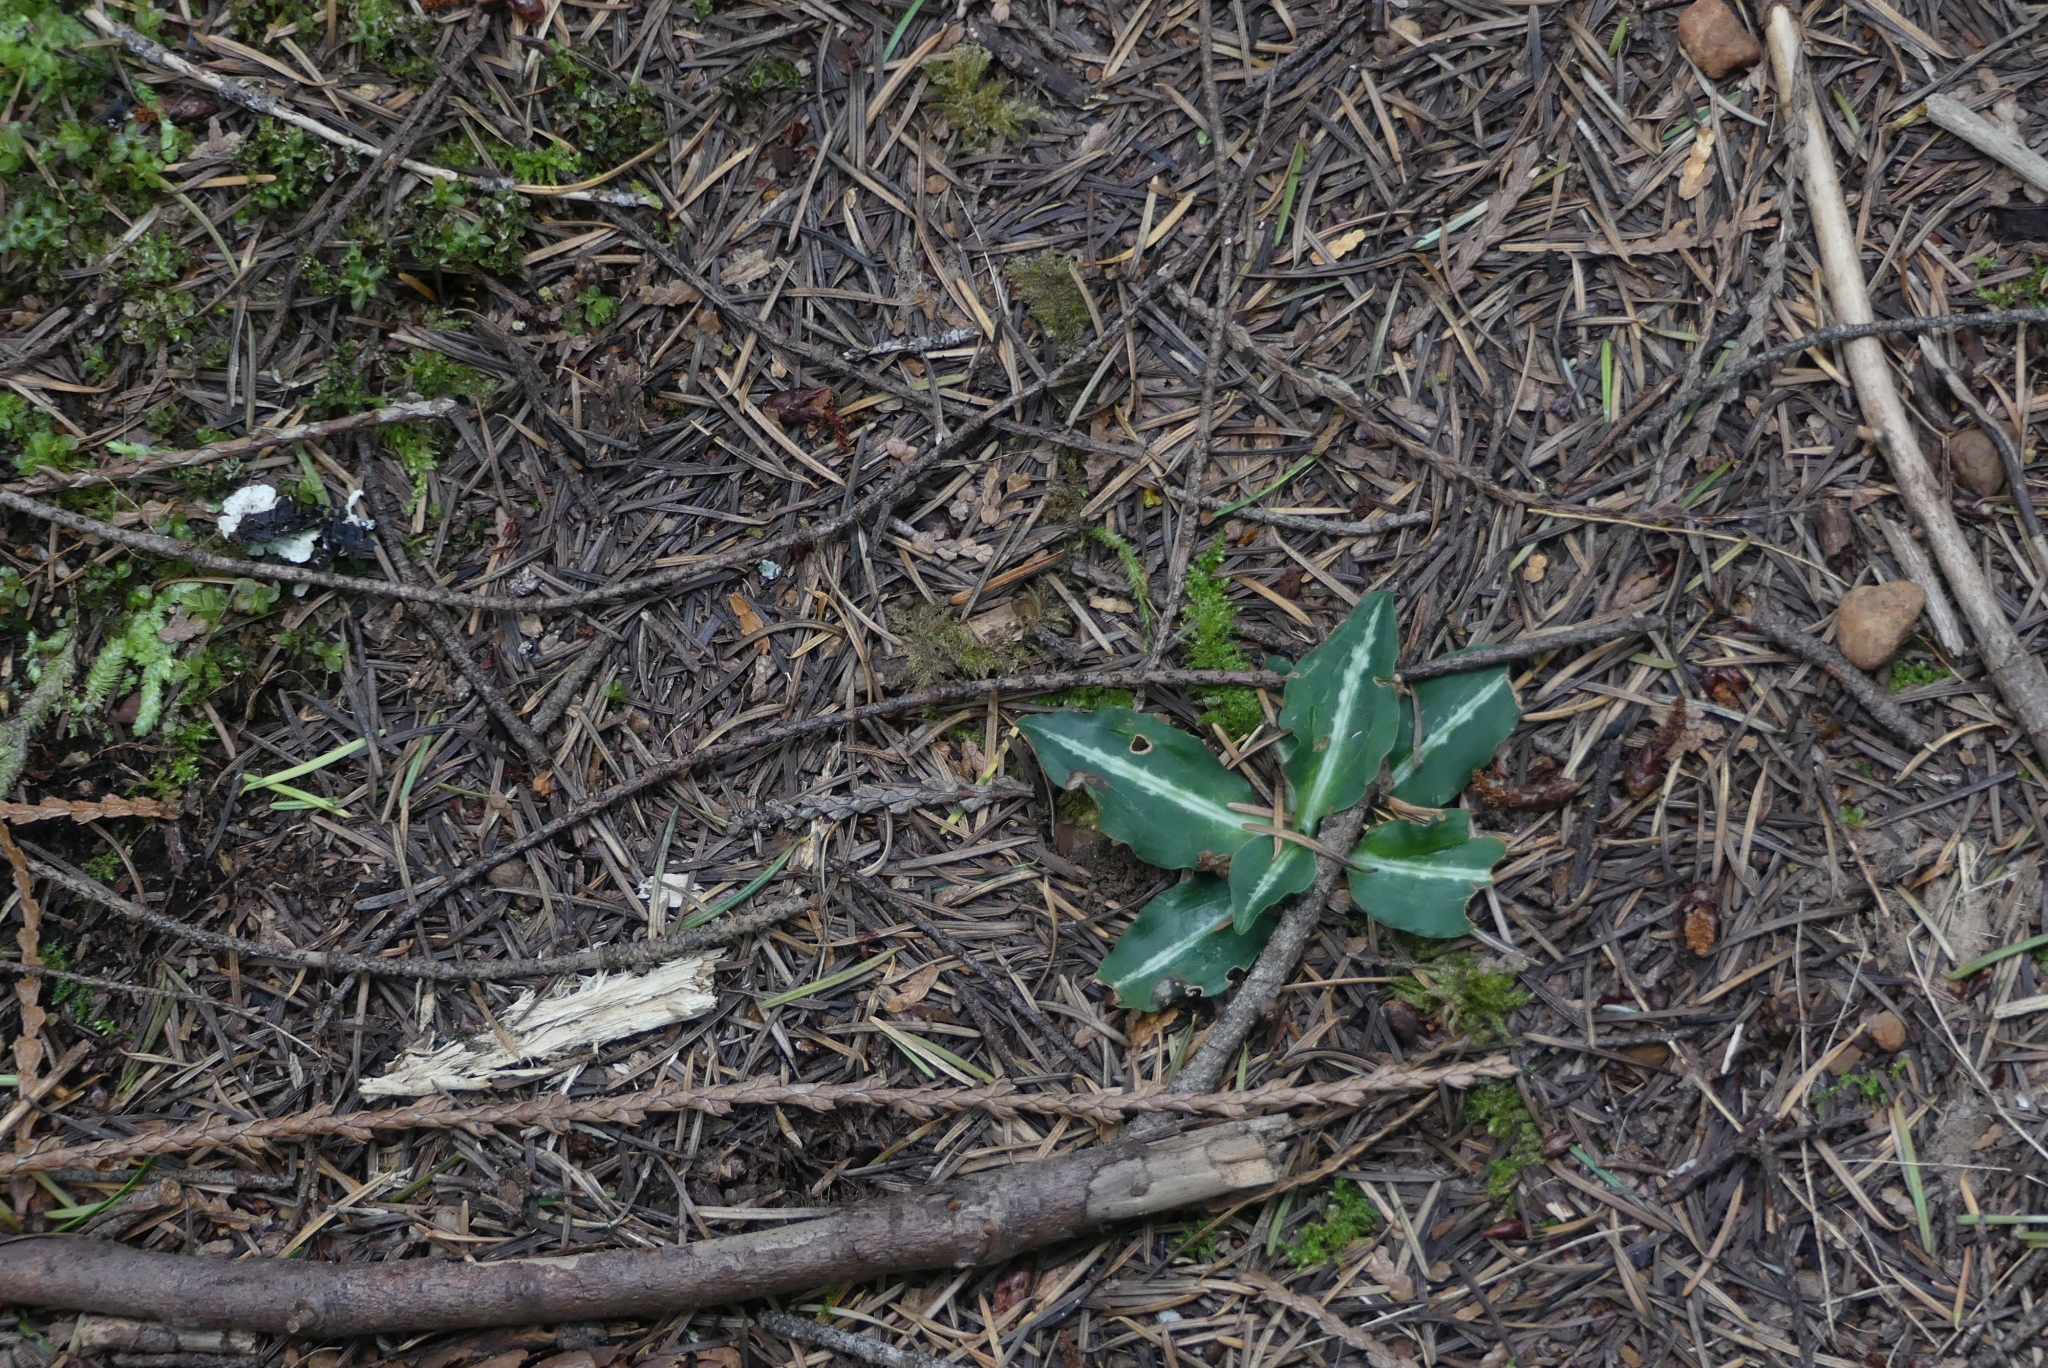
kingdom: Plantae
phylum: Tracheophyta
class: Liliopsida
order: Asparagales
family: Orchidaceae
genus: Goodyera
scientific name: Goodyera oblongifolia
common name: Giant rattlesnake-plantain
